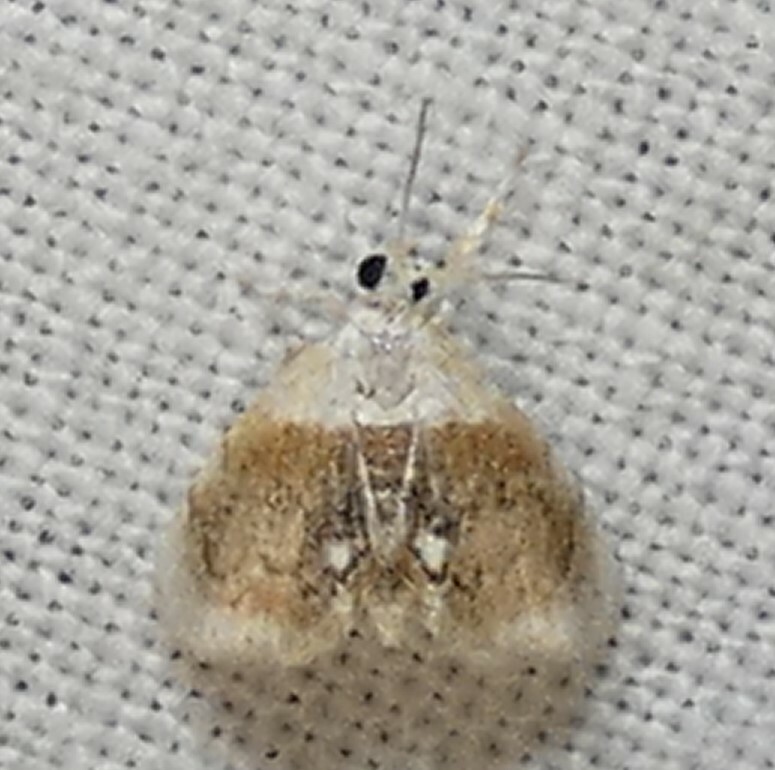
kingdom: Animalia
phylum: Arthropoda
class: Insecta
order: Lepidoptera
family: Crambidae
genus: Lipocosmodes
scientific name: Lipocosmodes fuliginosalis
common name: Sooty lipocosmodes moth
